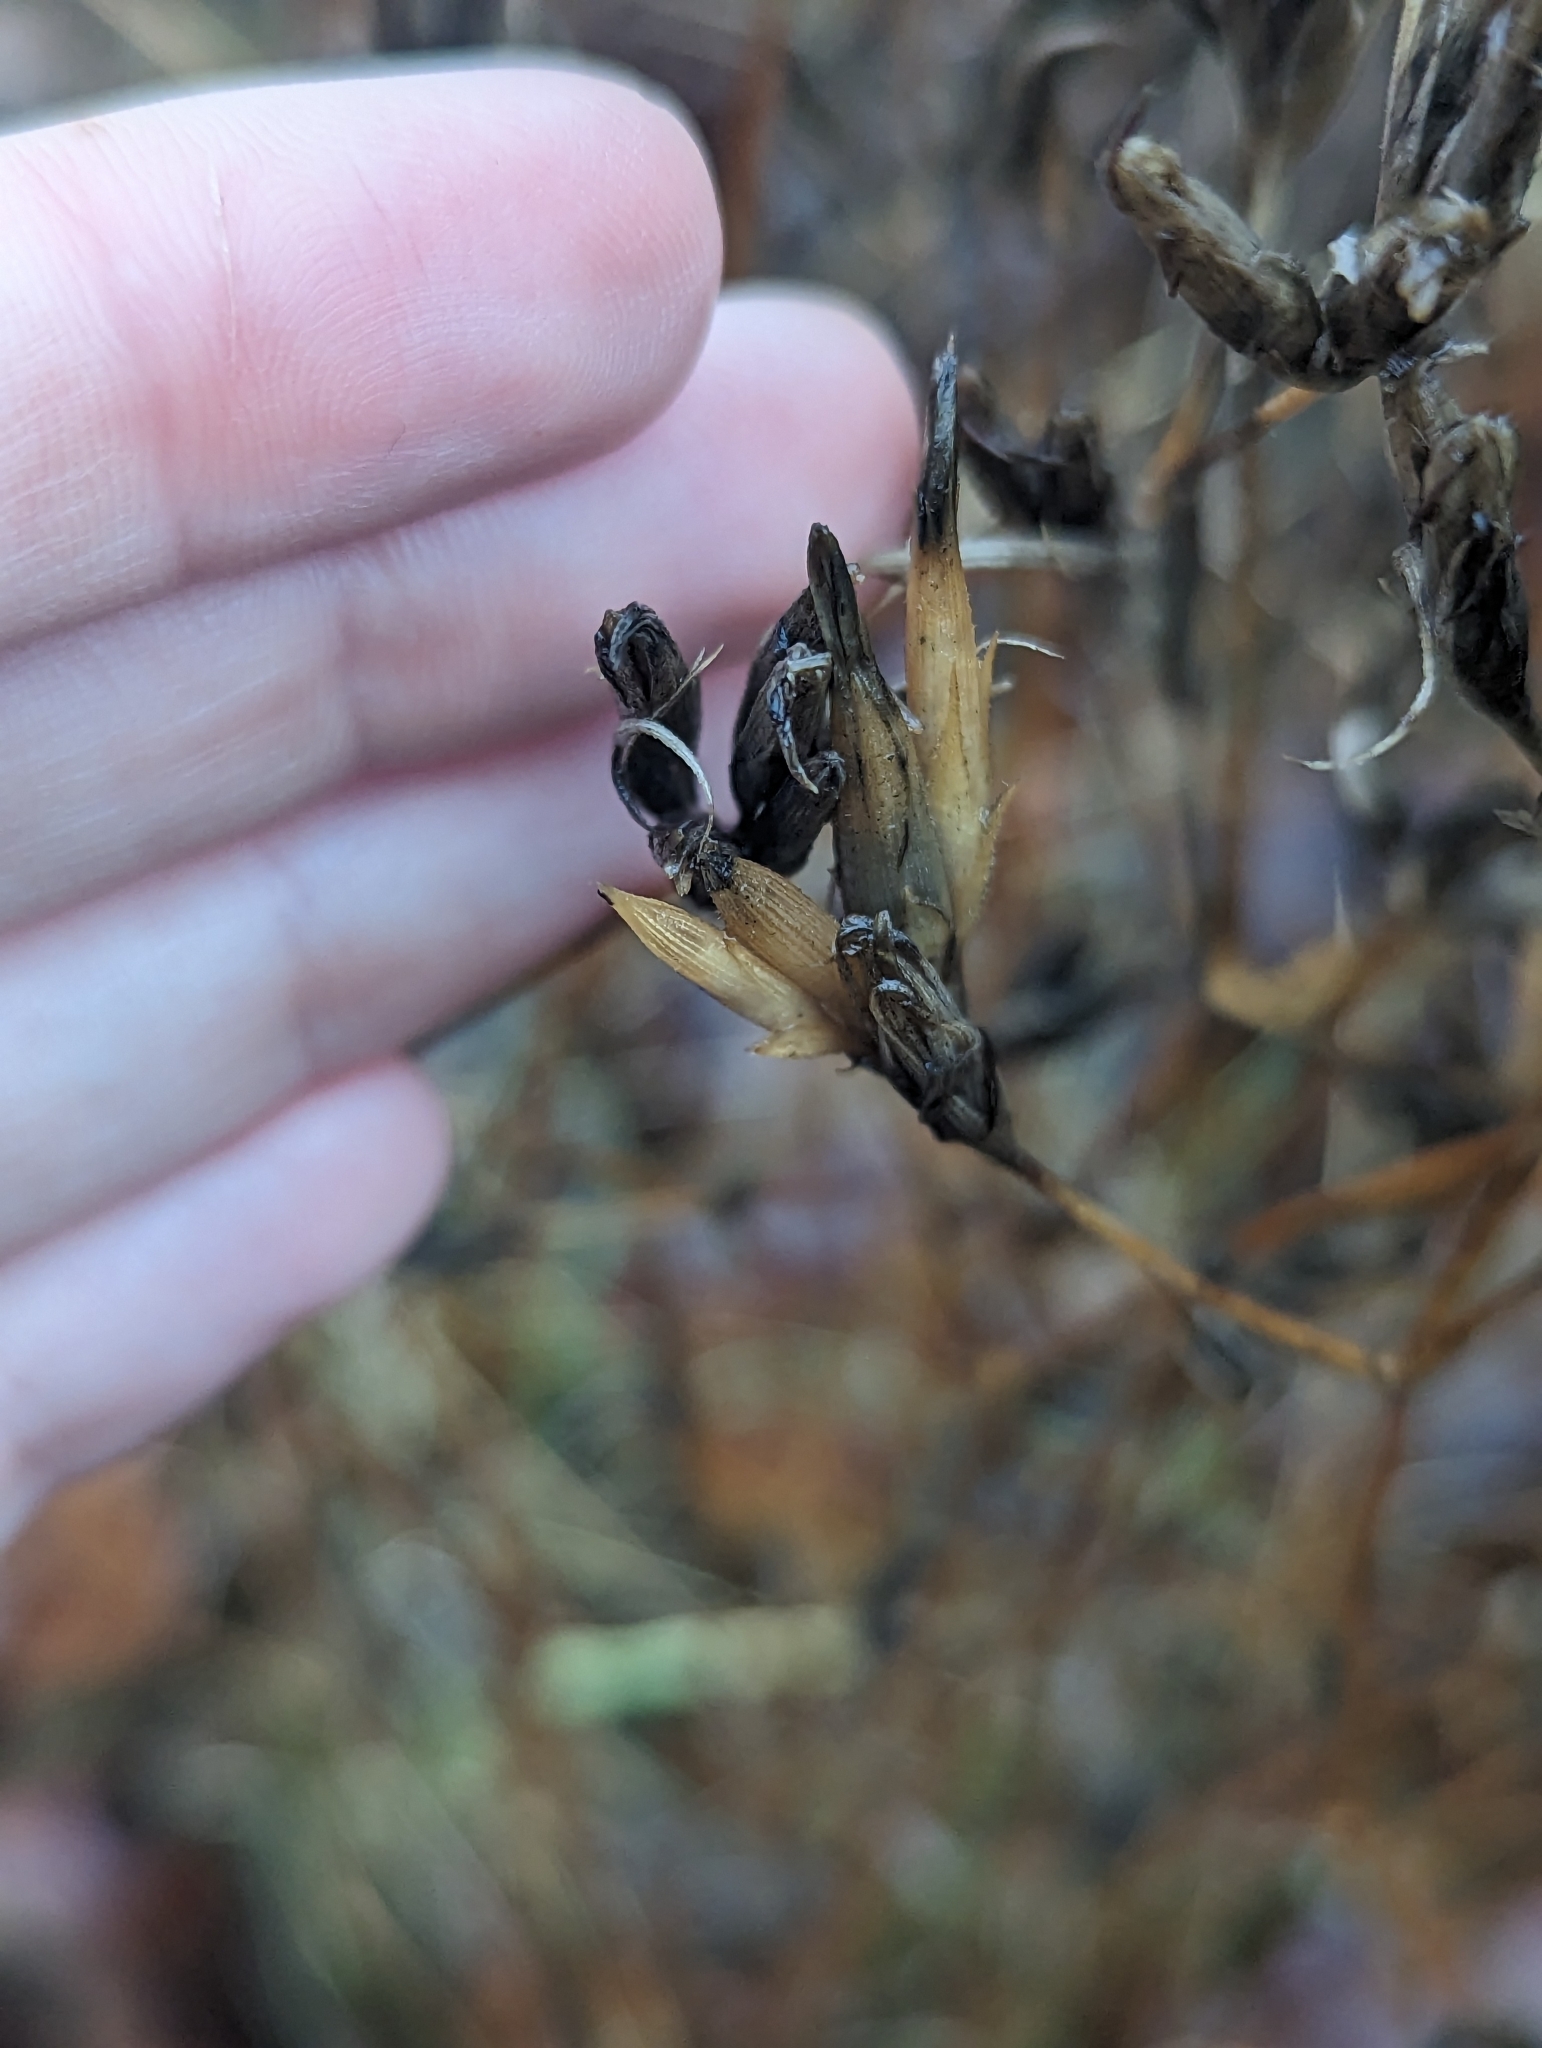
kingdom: Plantae
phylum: Tracheophyta
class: Magnoliopsida
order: Caryophyllales
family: Caryophyllaceae
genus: Dianthus
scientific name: Dianthus armeria
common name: Deptford pink
